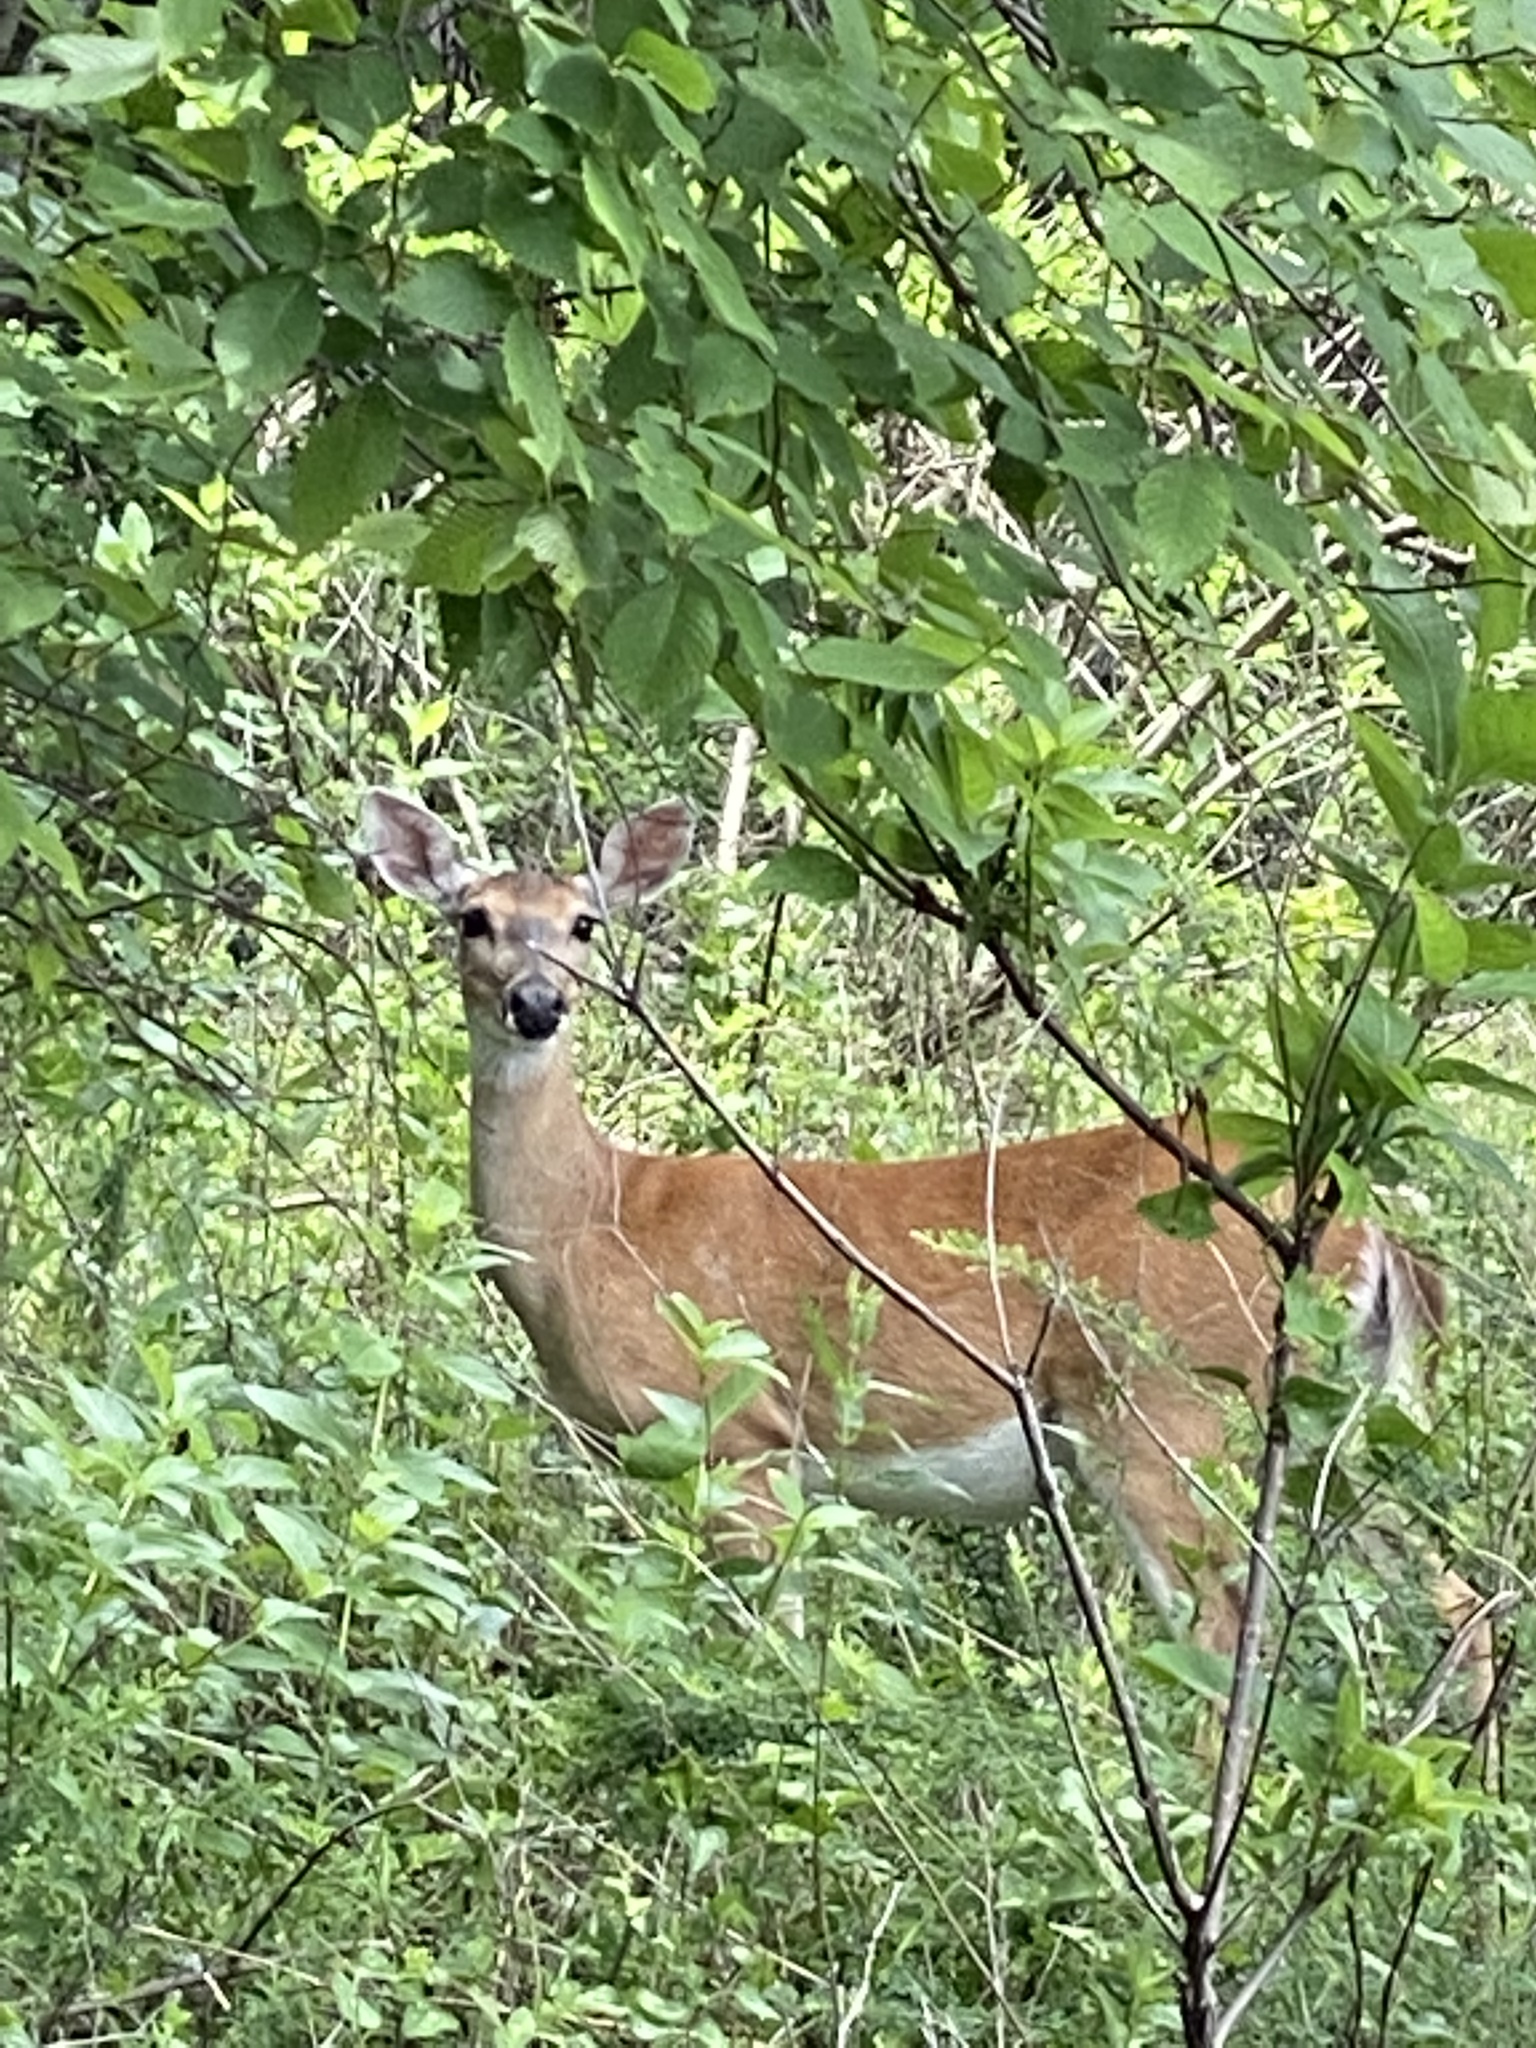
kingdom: Animalia
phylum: Chordata
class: Mammalia
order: Artiodactyla
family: Cervidae
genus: Odocoileus
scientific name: Odocoileus virginianus
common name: White-tailed deer
